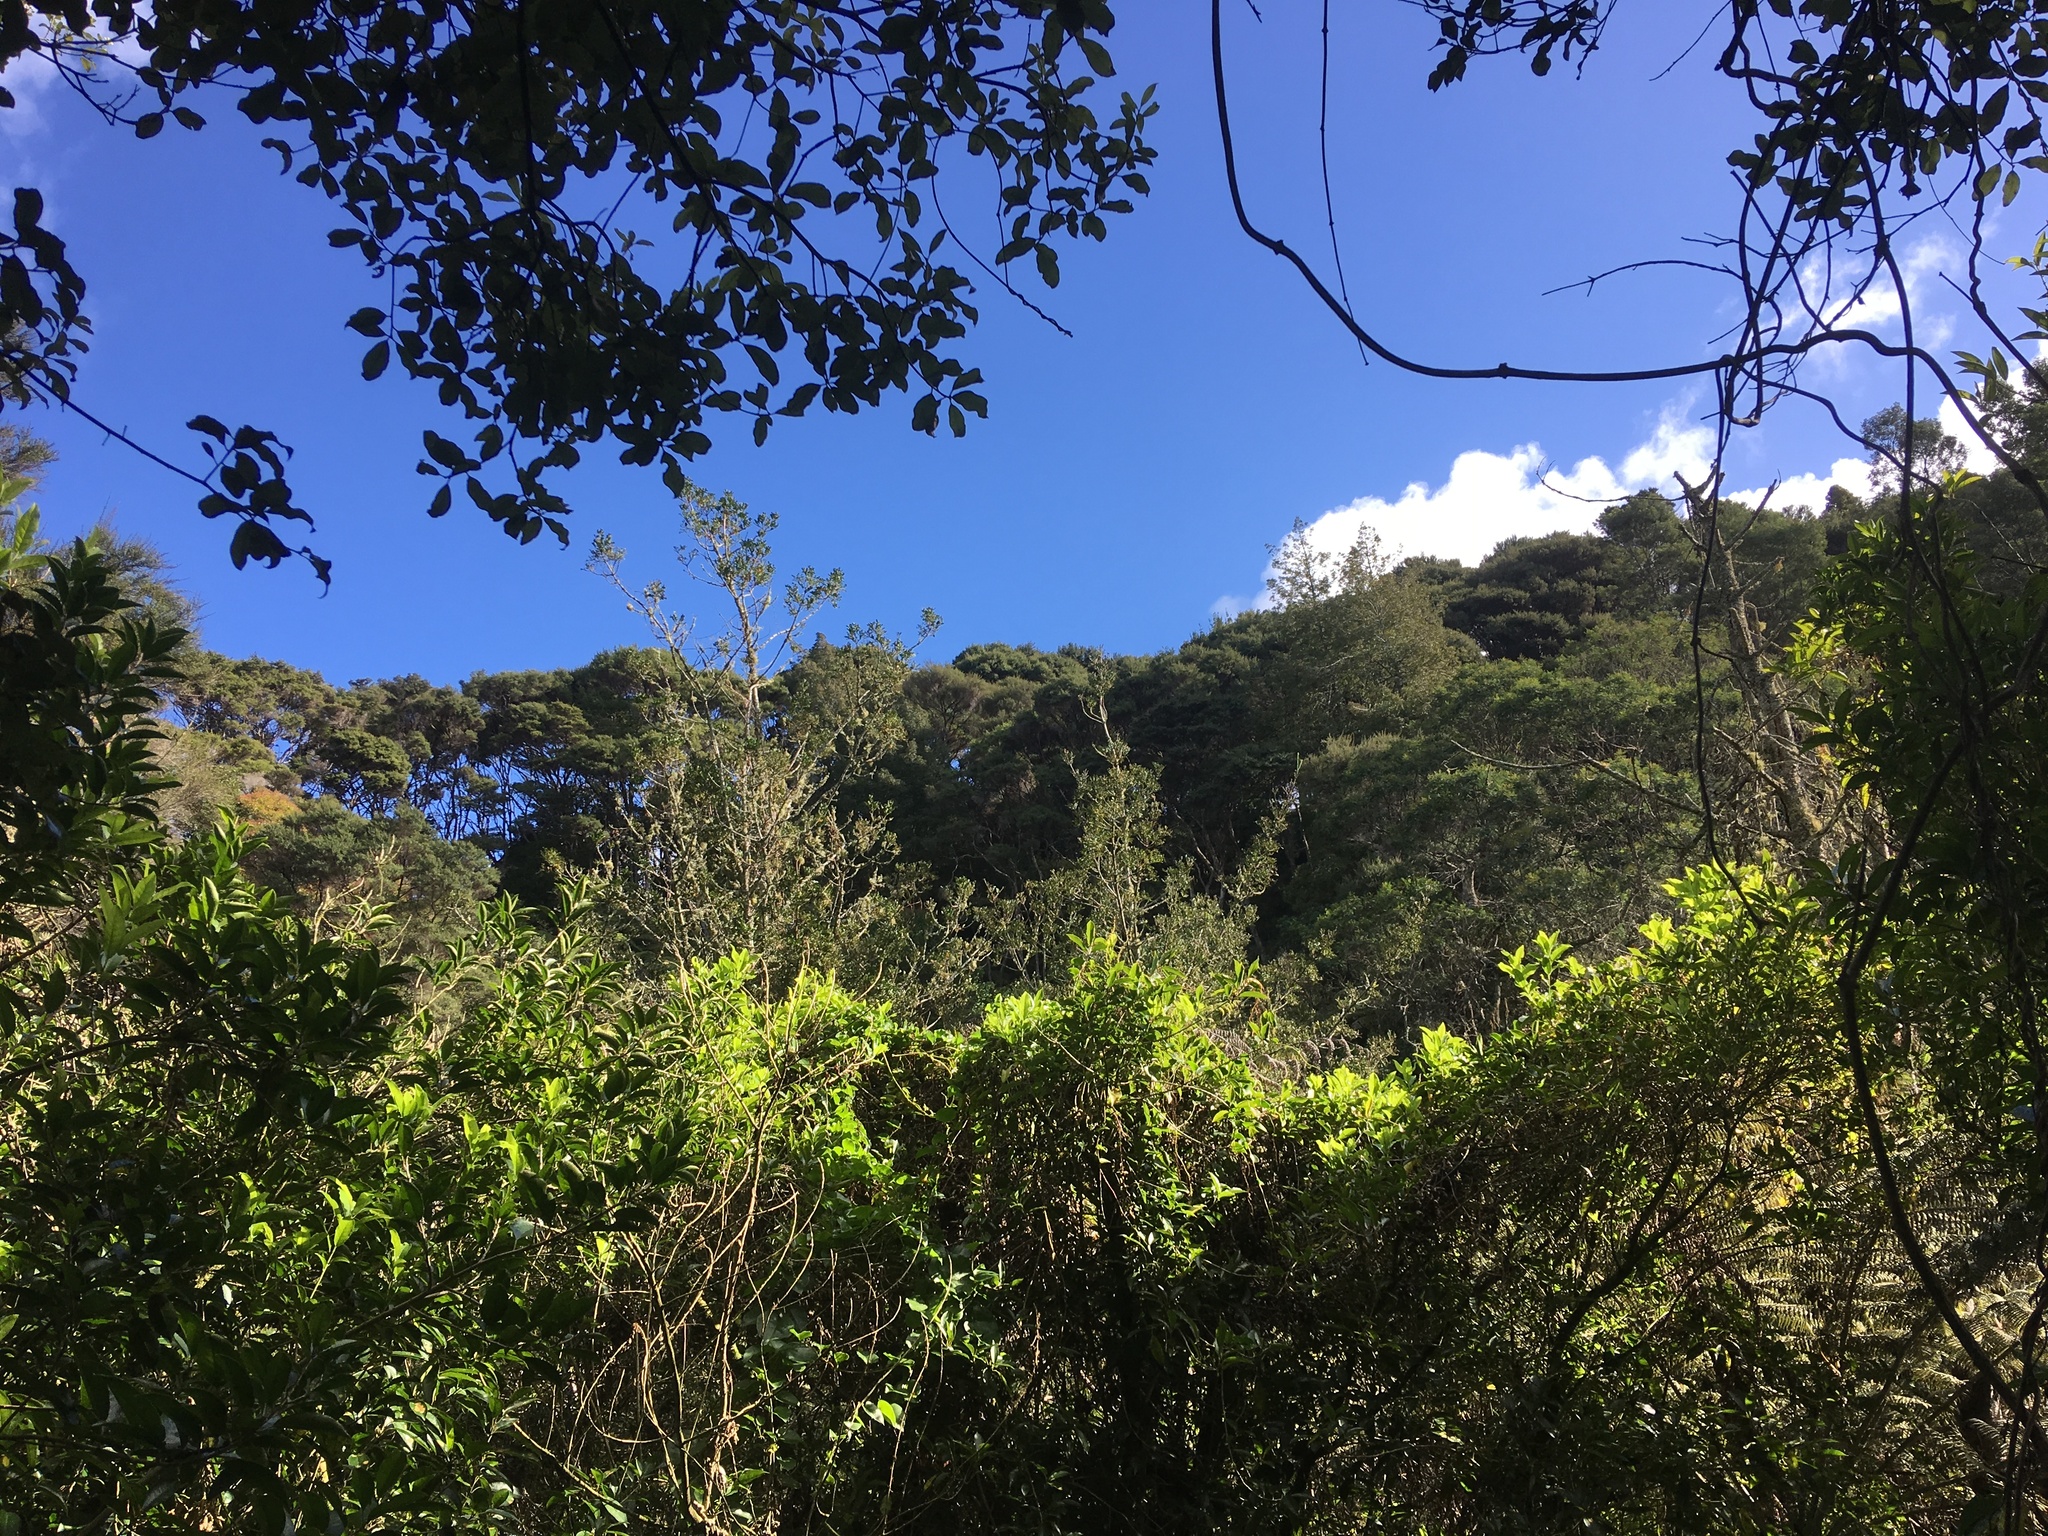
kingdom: Plantae
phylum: Tracheophyta
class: Magnoliopsida
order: Caryophyllales
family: Basellaceae
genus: Anredera
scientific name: Anredera cordifolia
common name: Heartleaf madeiravine
